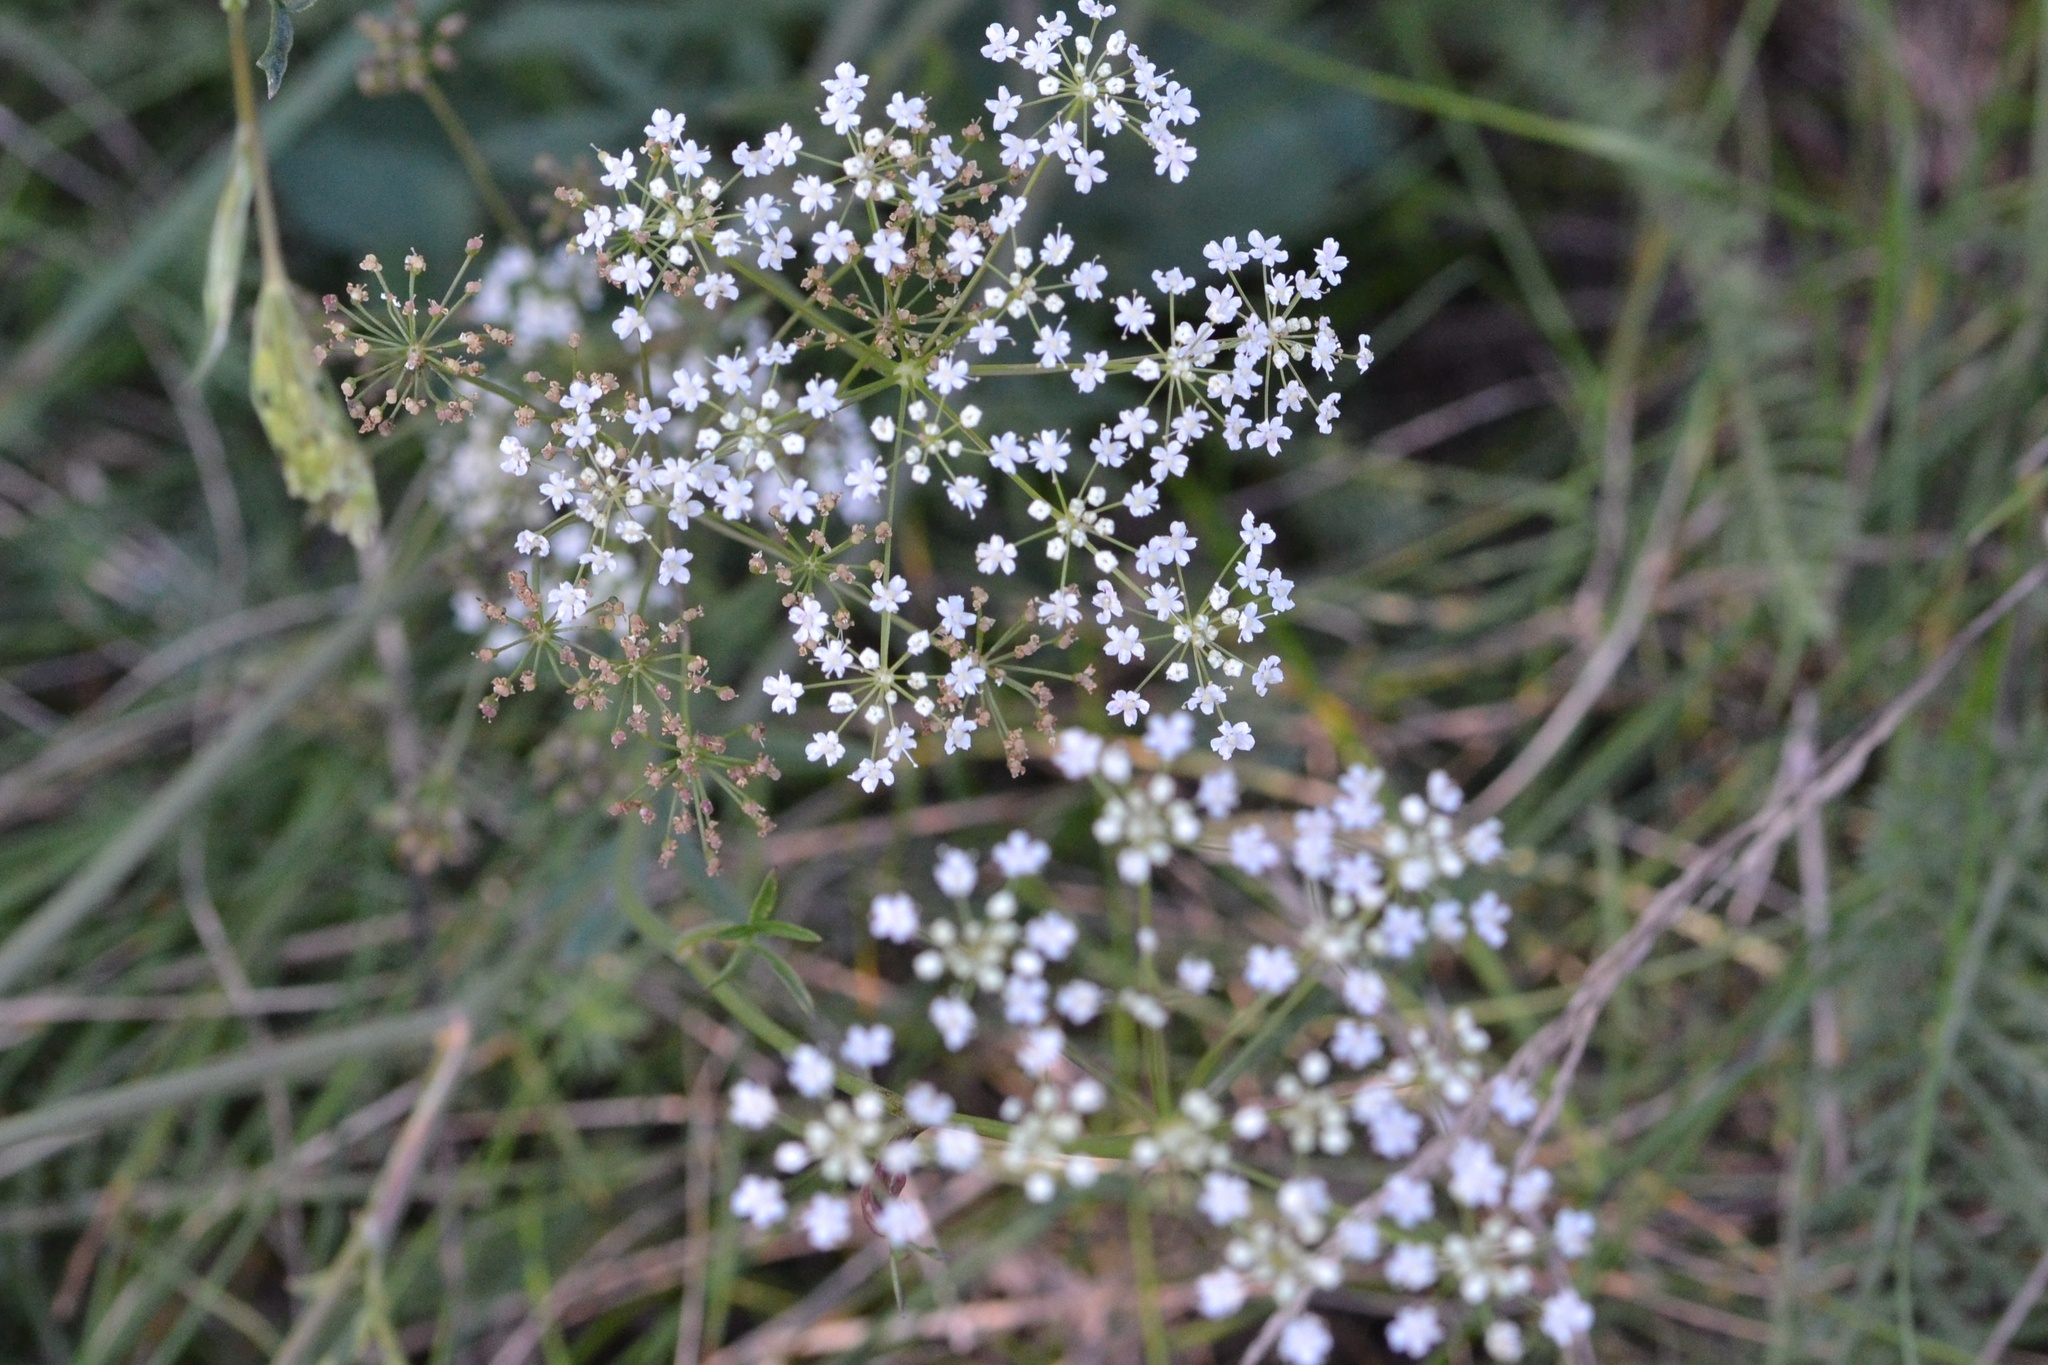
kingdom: Plantae
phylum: Tracheophyta
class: Magnoliopsida
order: Apiales
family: Apiaceae
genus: Pimpinella
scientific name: Pimpinella saxifraga
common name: Burnet-saxifrage
